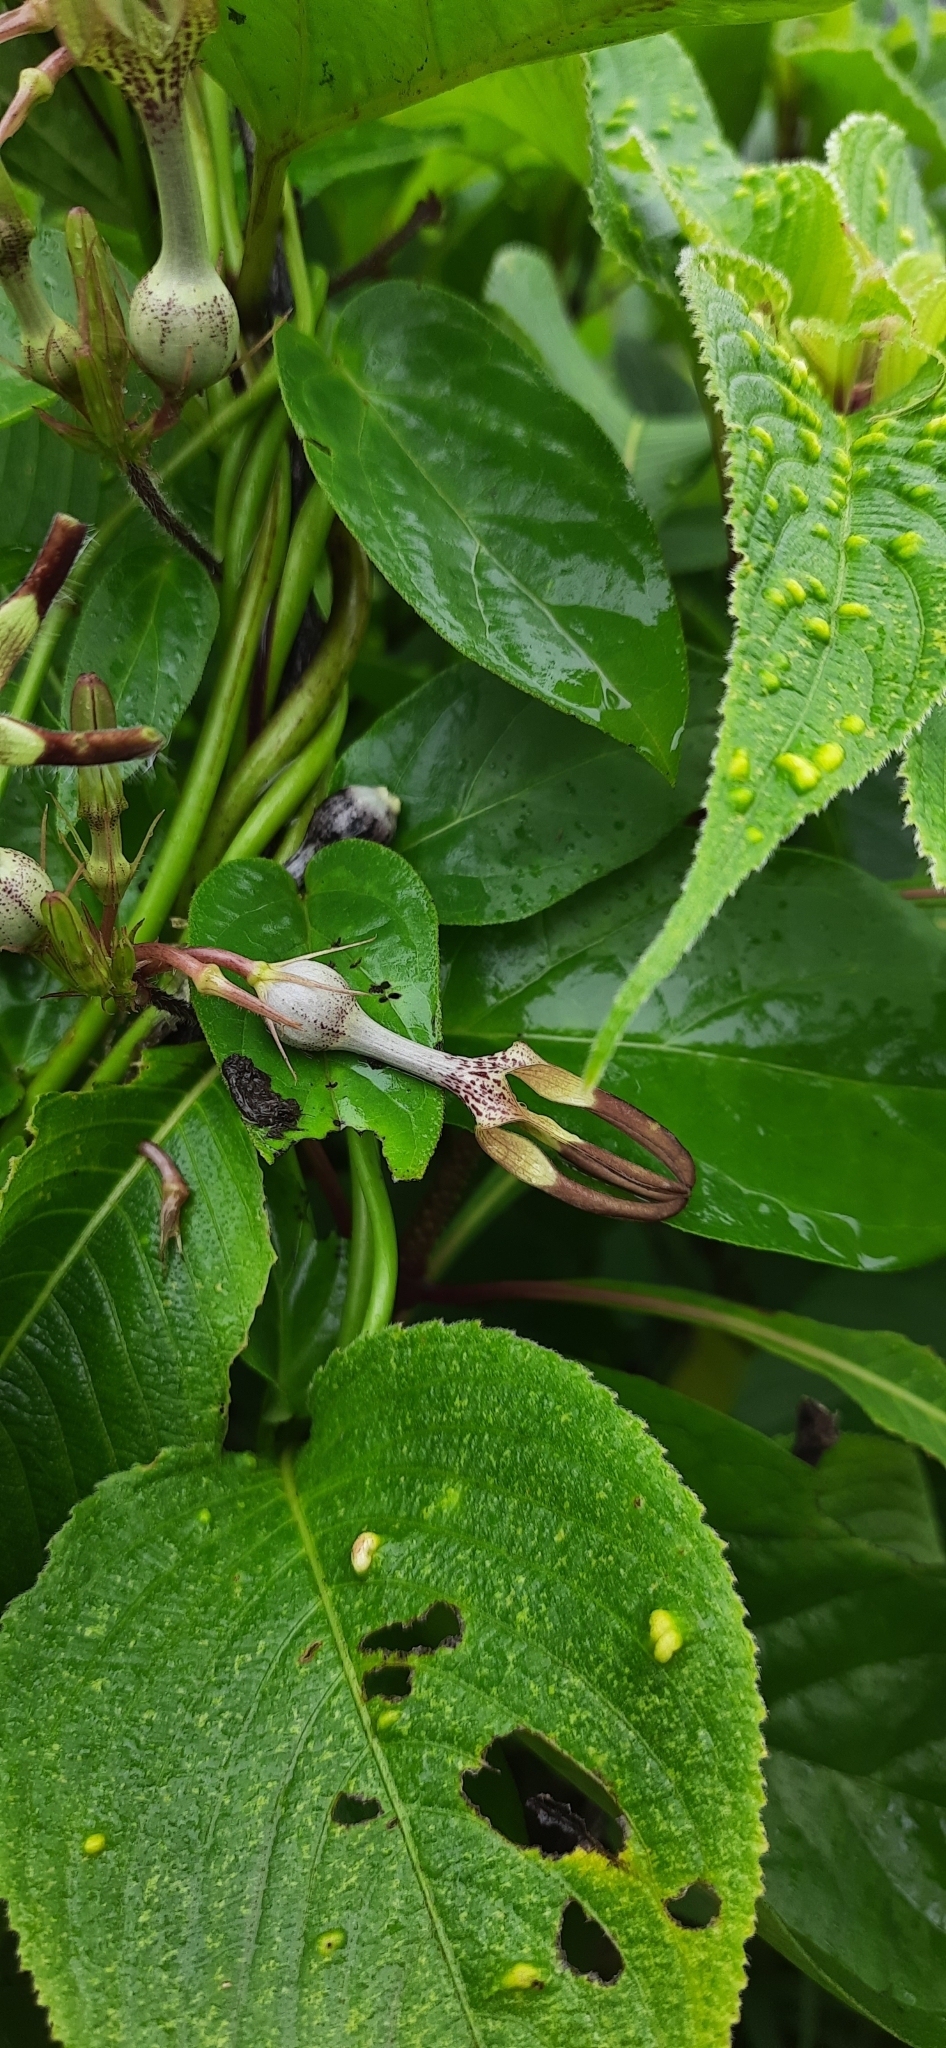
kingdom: Plantae
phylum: Tracheophyta
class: Magnoliopsida
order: Gentianales
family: Apocynaceae
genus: Ceropegia
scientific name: Ceropegia vincifolia
